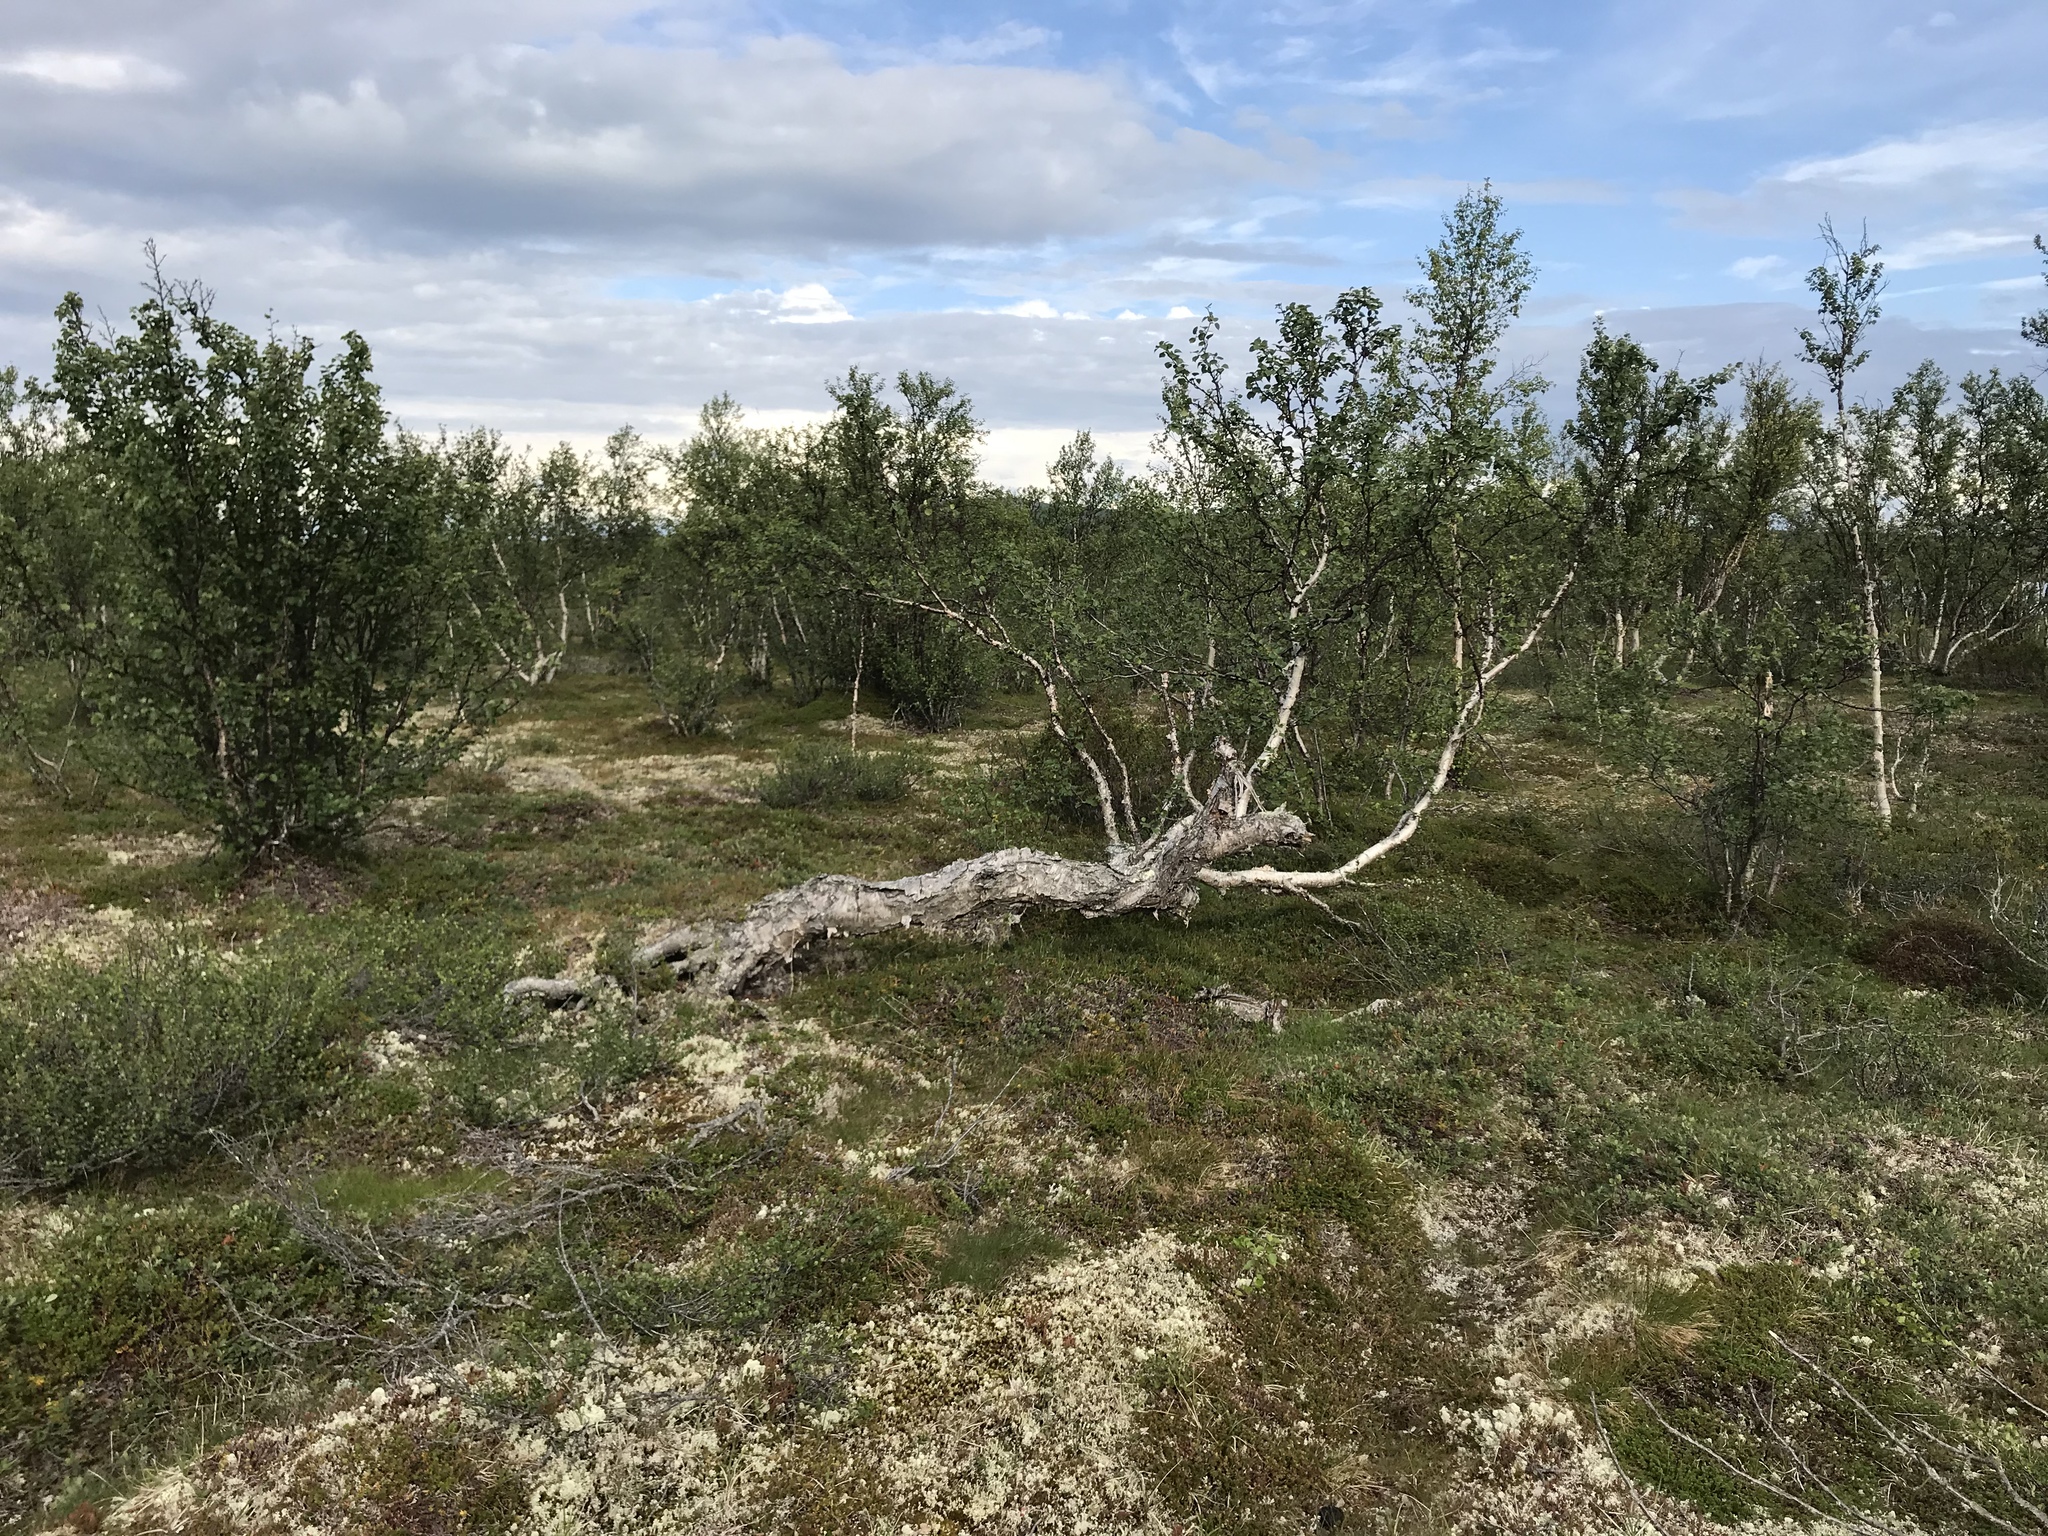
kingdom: Plantae
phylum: Tracheophyta
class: Magnoliopsida
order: Fagales
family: Betulaceae
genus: Betula
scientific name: Betula pubescens
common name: Downy birch
